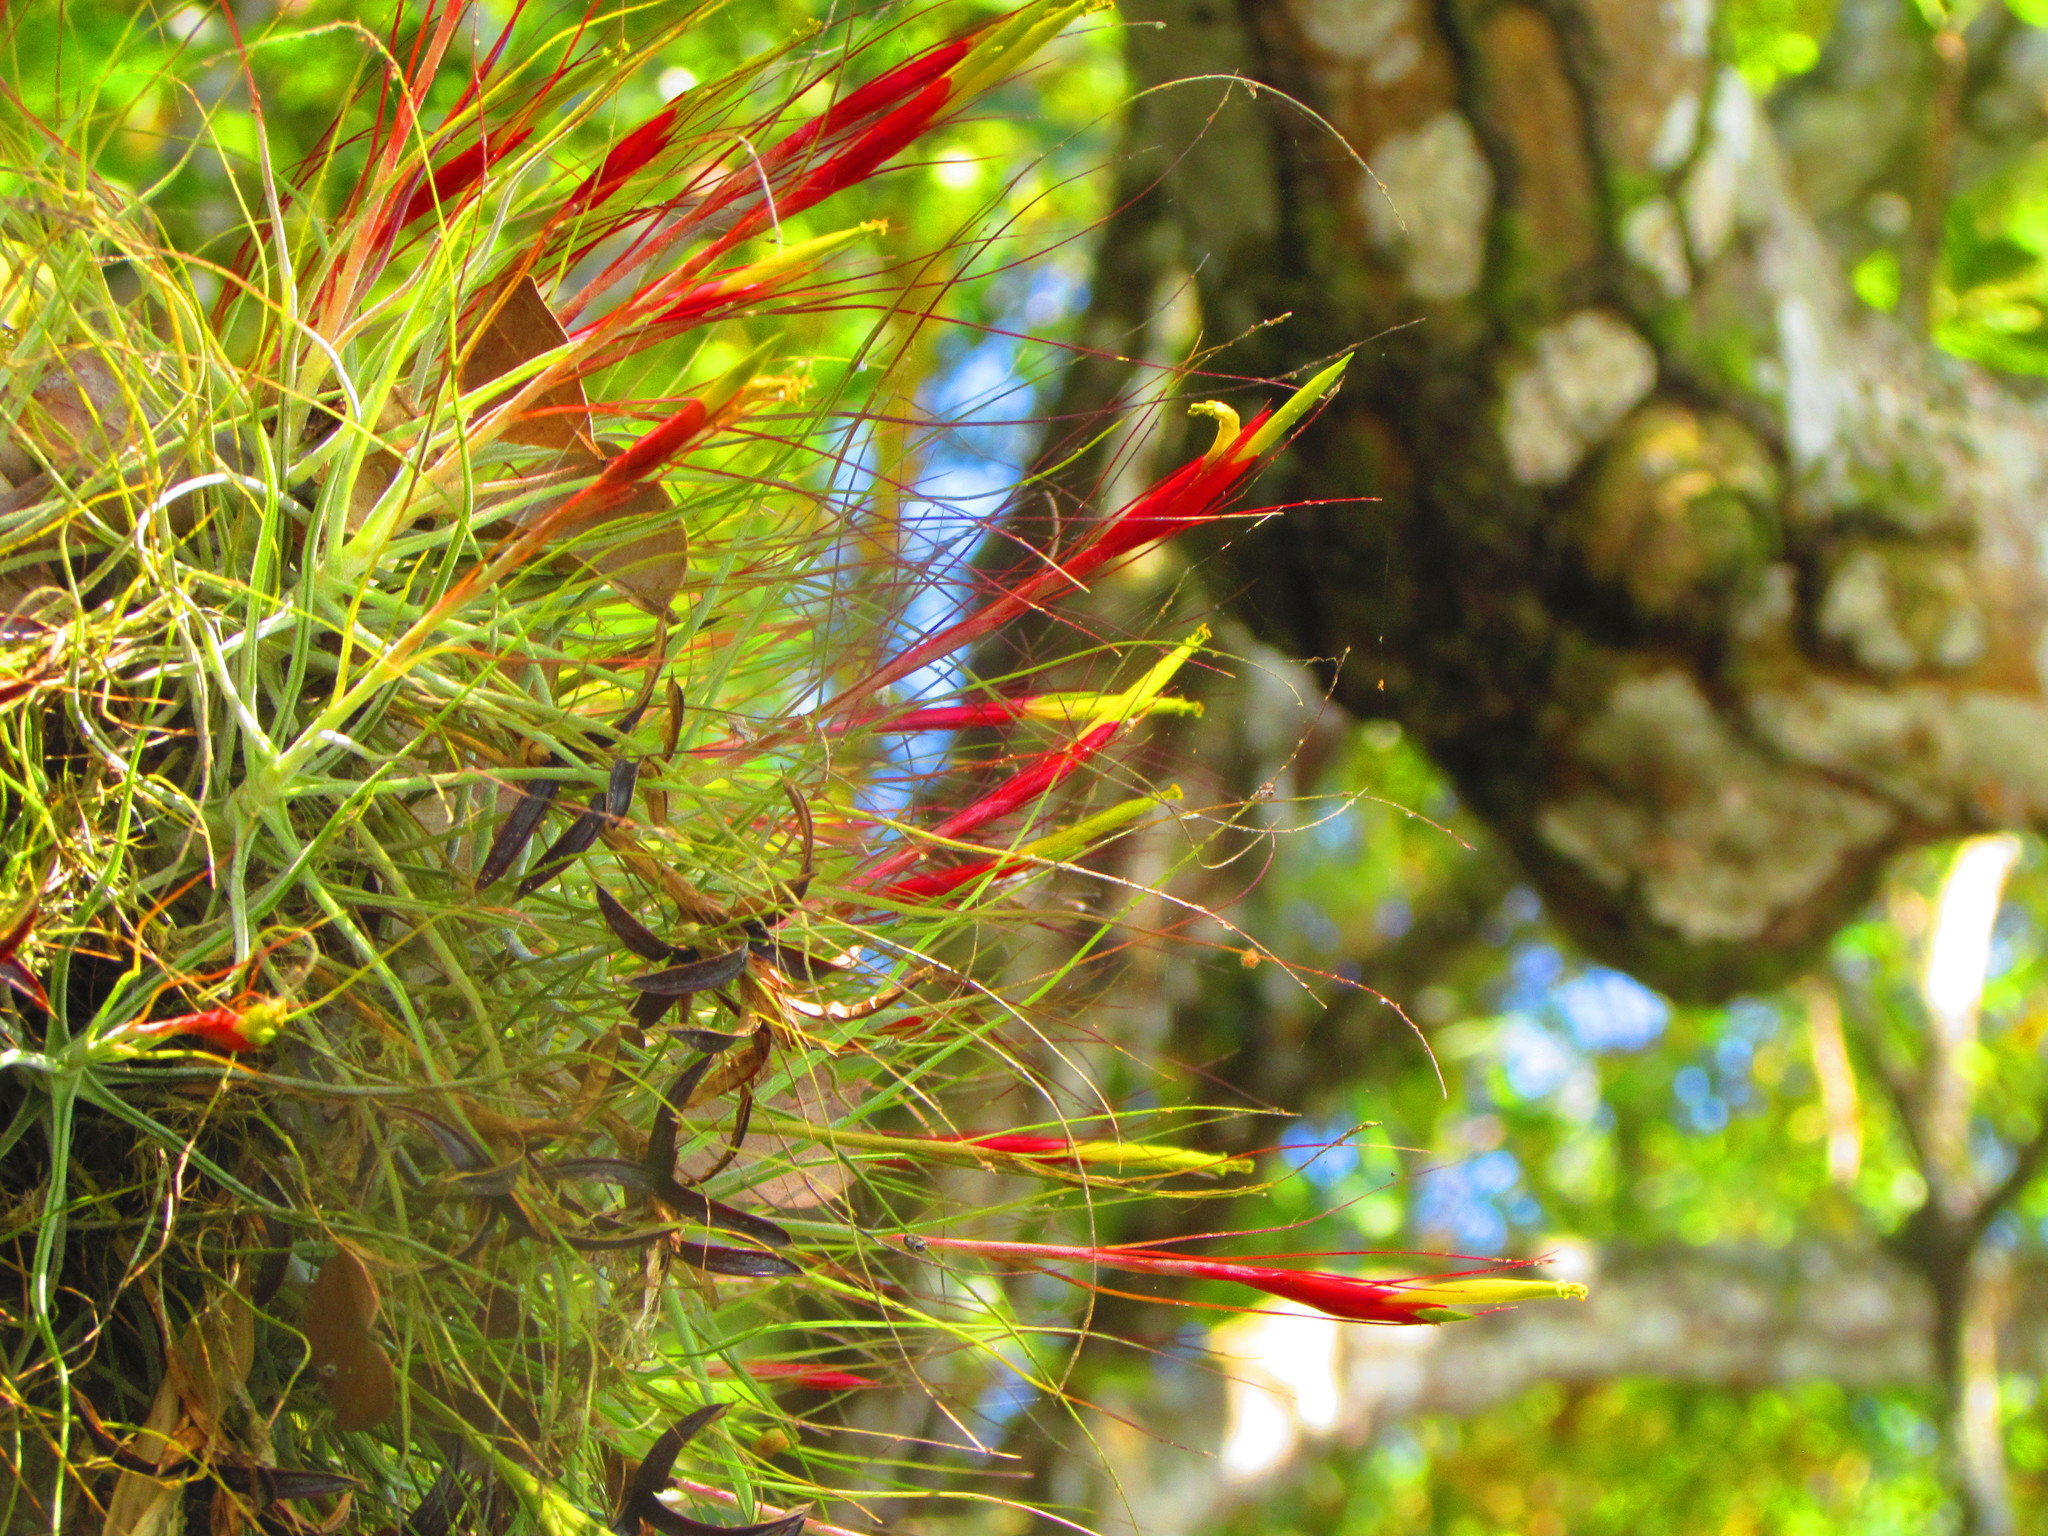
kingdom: Plantae
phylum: Tracheophyta
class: Liliopsida
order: Poales
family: Bromeliaceae
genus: Tillandsia
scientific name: Tillandsia schiedeana
